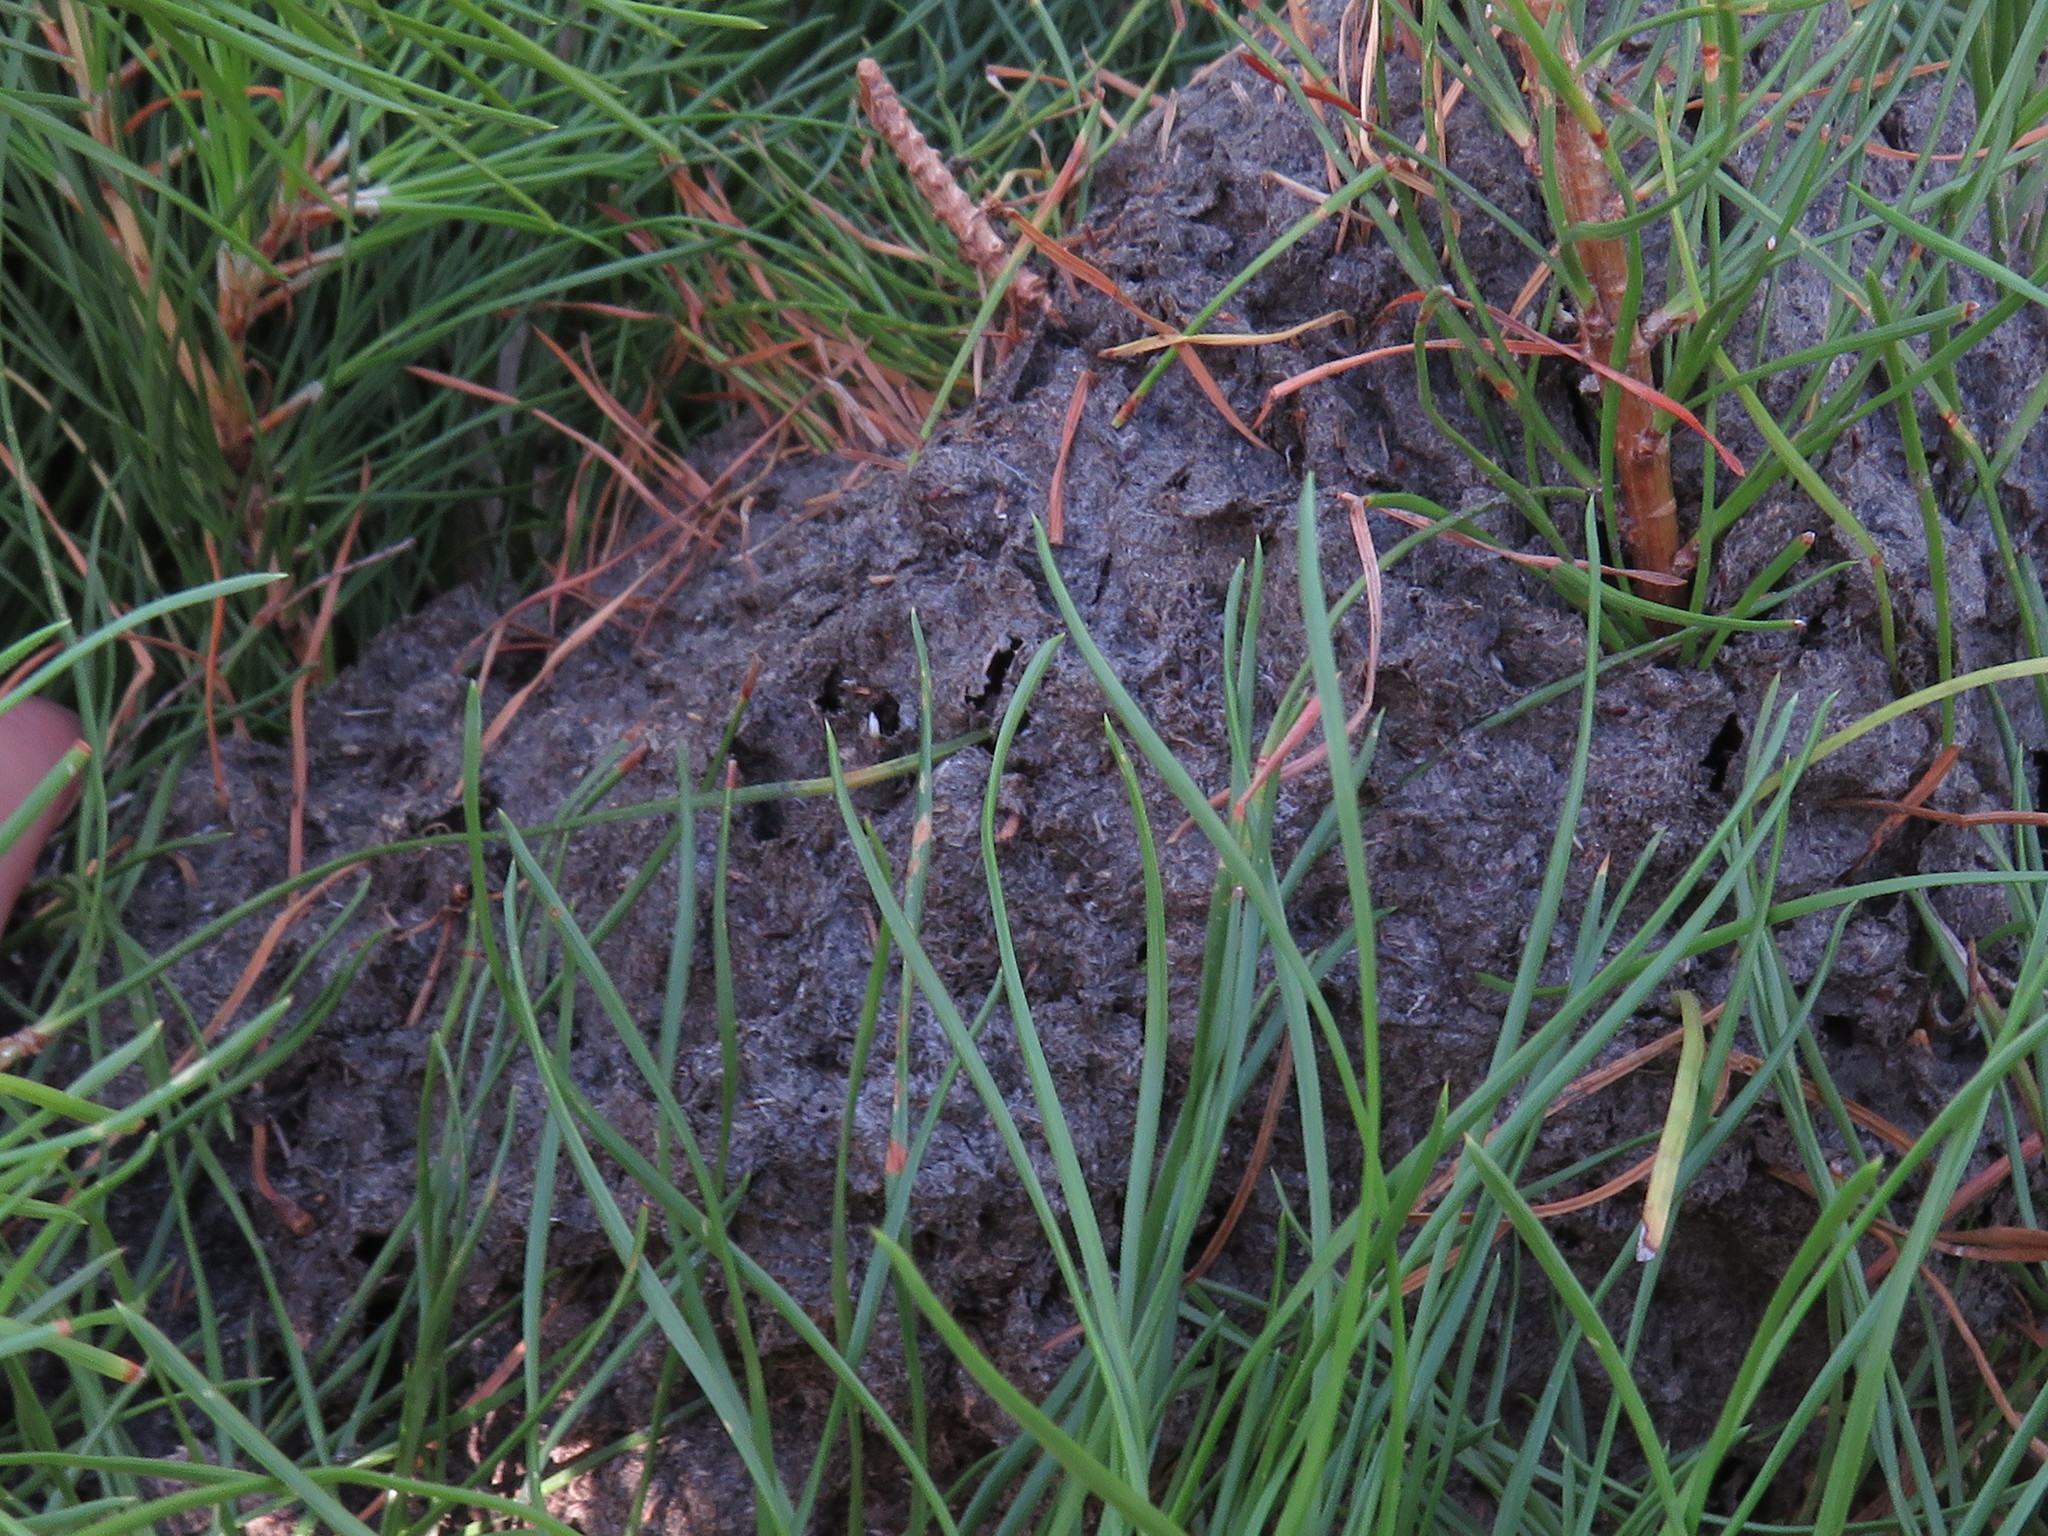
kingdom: Animalia
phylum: Arthropoda
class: Insecta
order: Hymenoptera
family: Formicidae
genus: Crematogaster
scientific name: Crematogaster peringueyi
